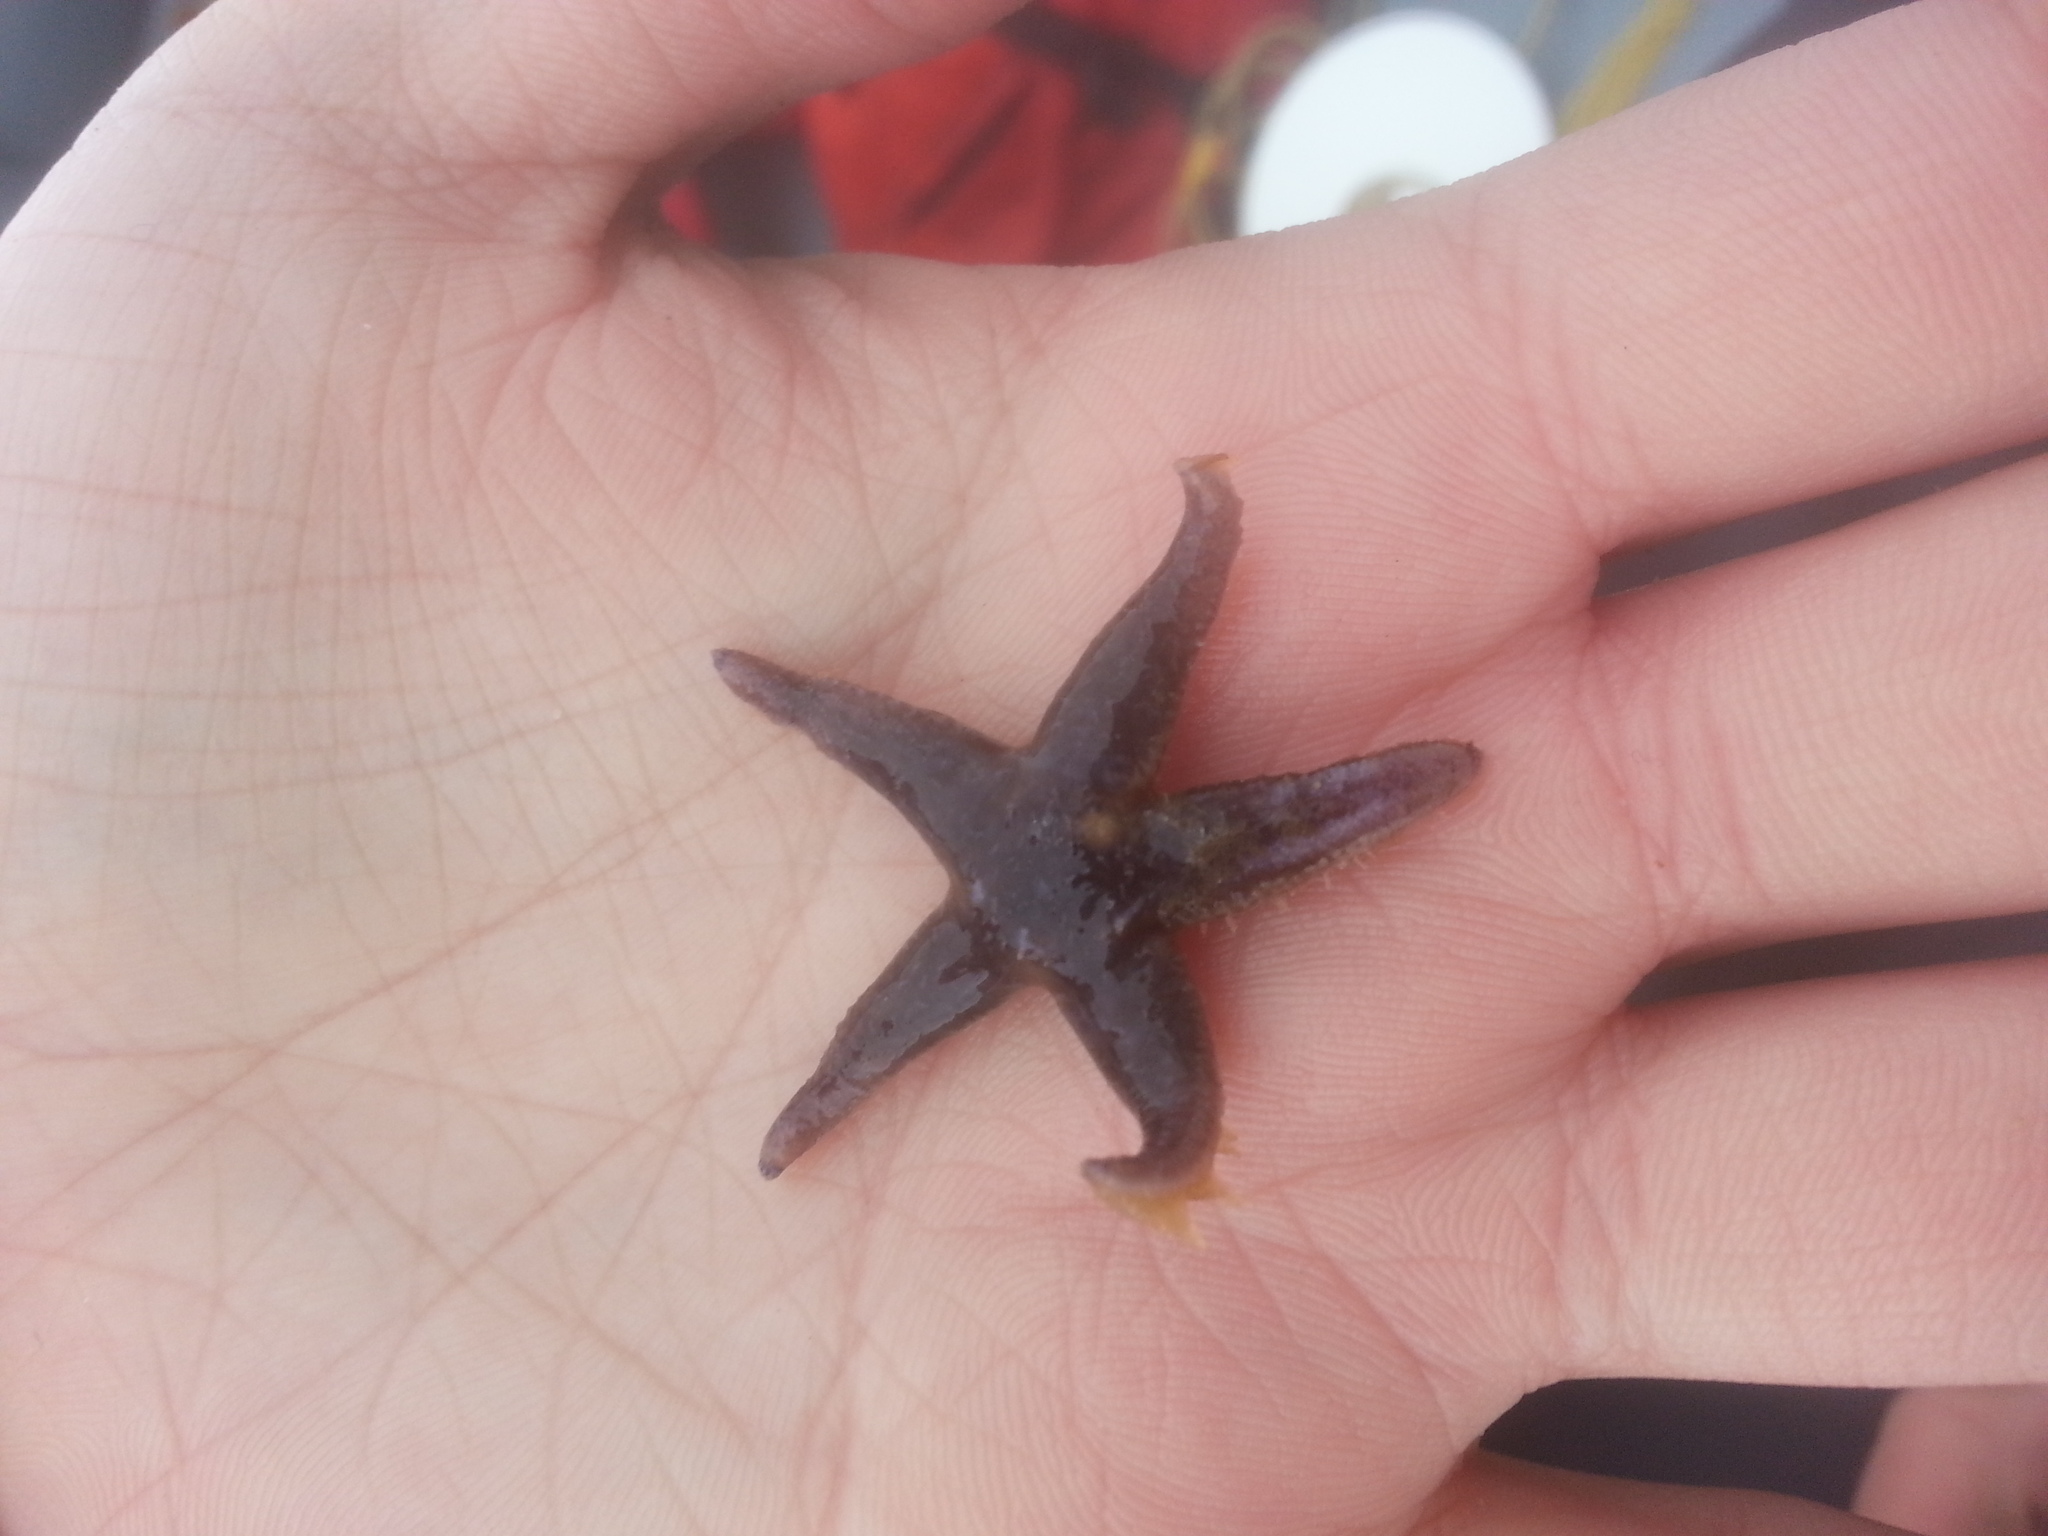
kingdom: Animalia
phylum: Echinodermata
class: Asteroidea
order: Spinulosida
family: Echinasteridae
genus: Henricia
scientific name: Henricia sanguinolenta
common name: Blood star
